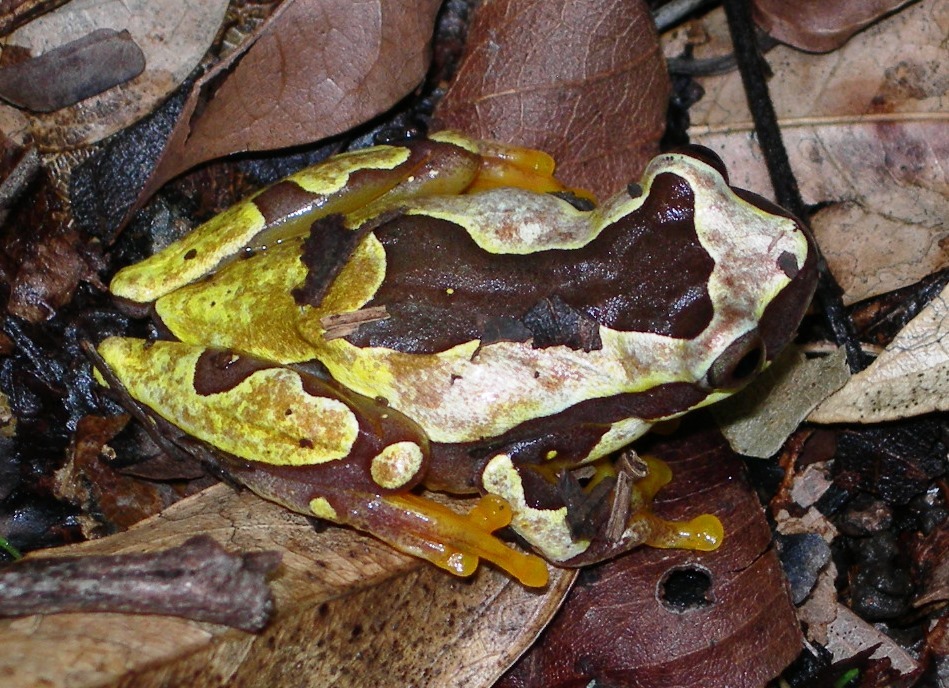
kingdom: Animalia
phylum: Chordata
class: Amphibia
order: Anura
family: Hylidae
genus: Dendropsophus
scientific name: Dendropsophus ebraccatus
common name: Hourglass treefrog
